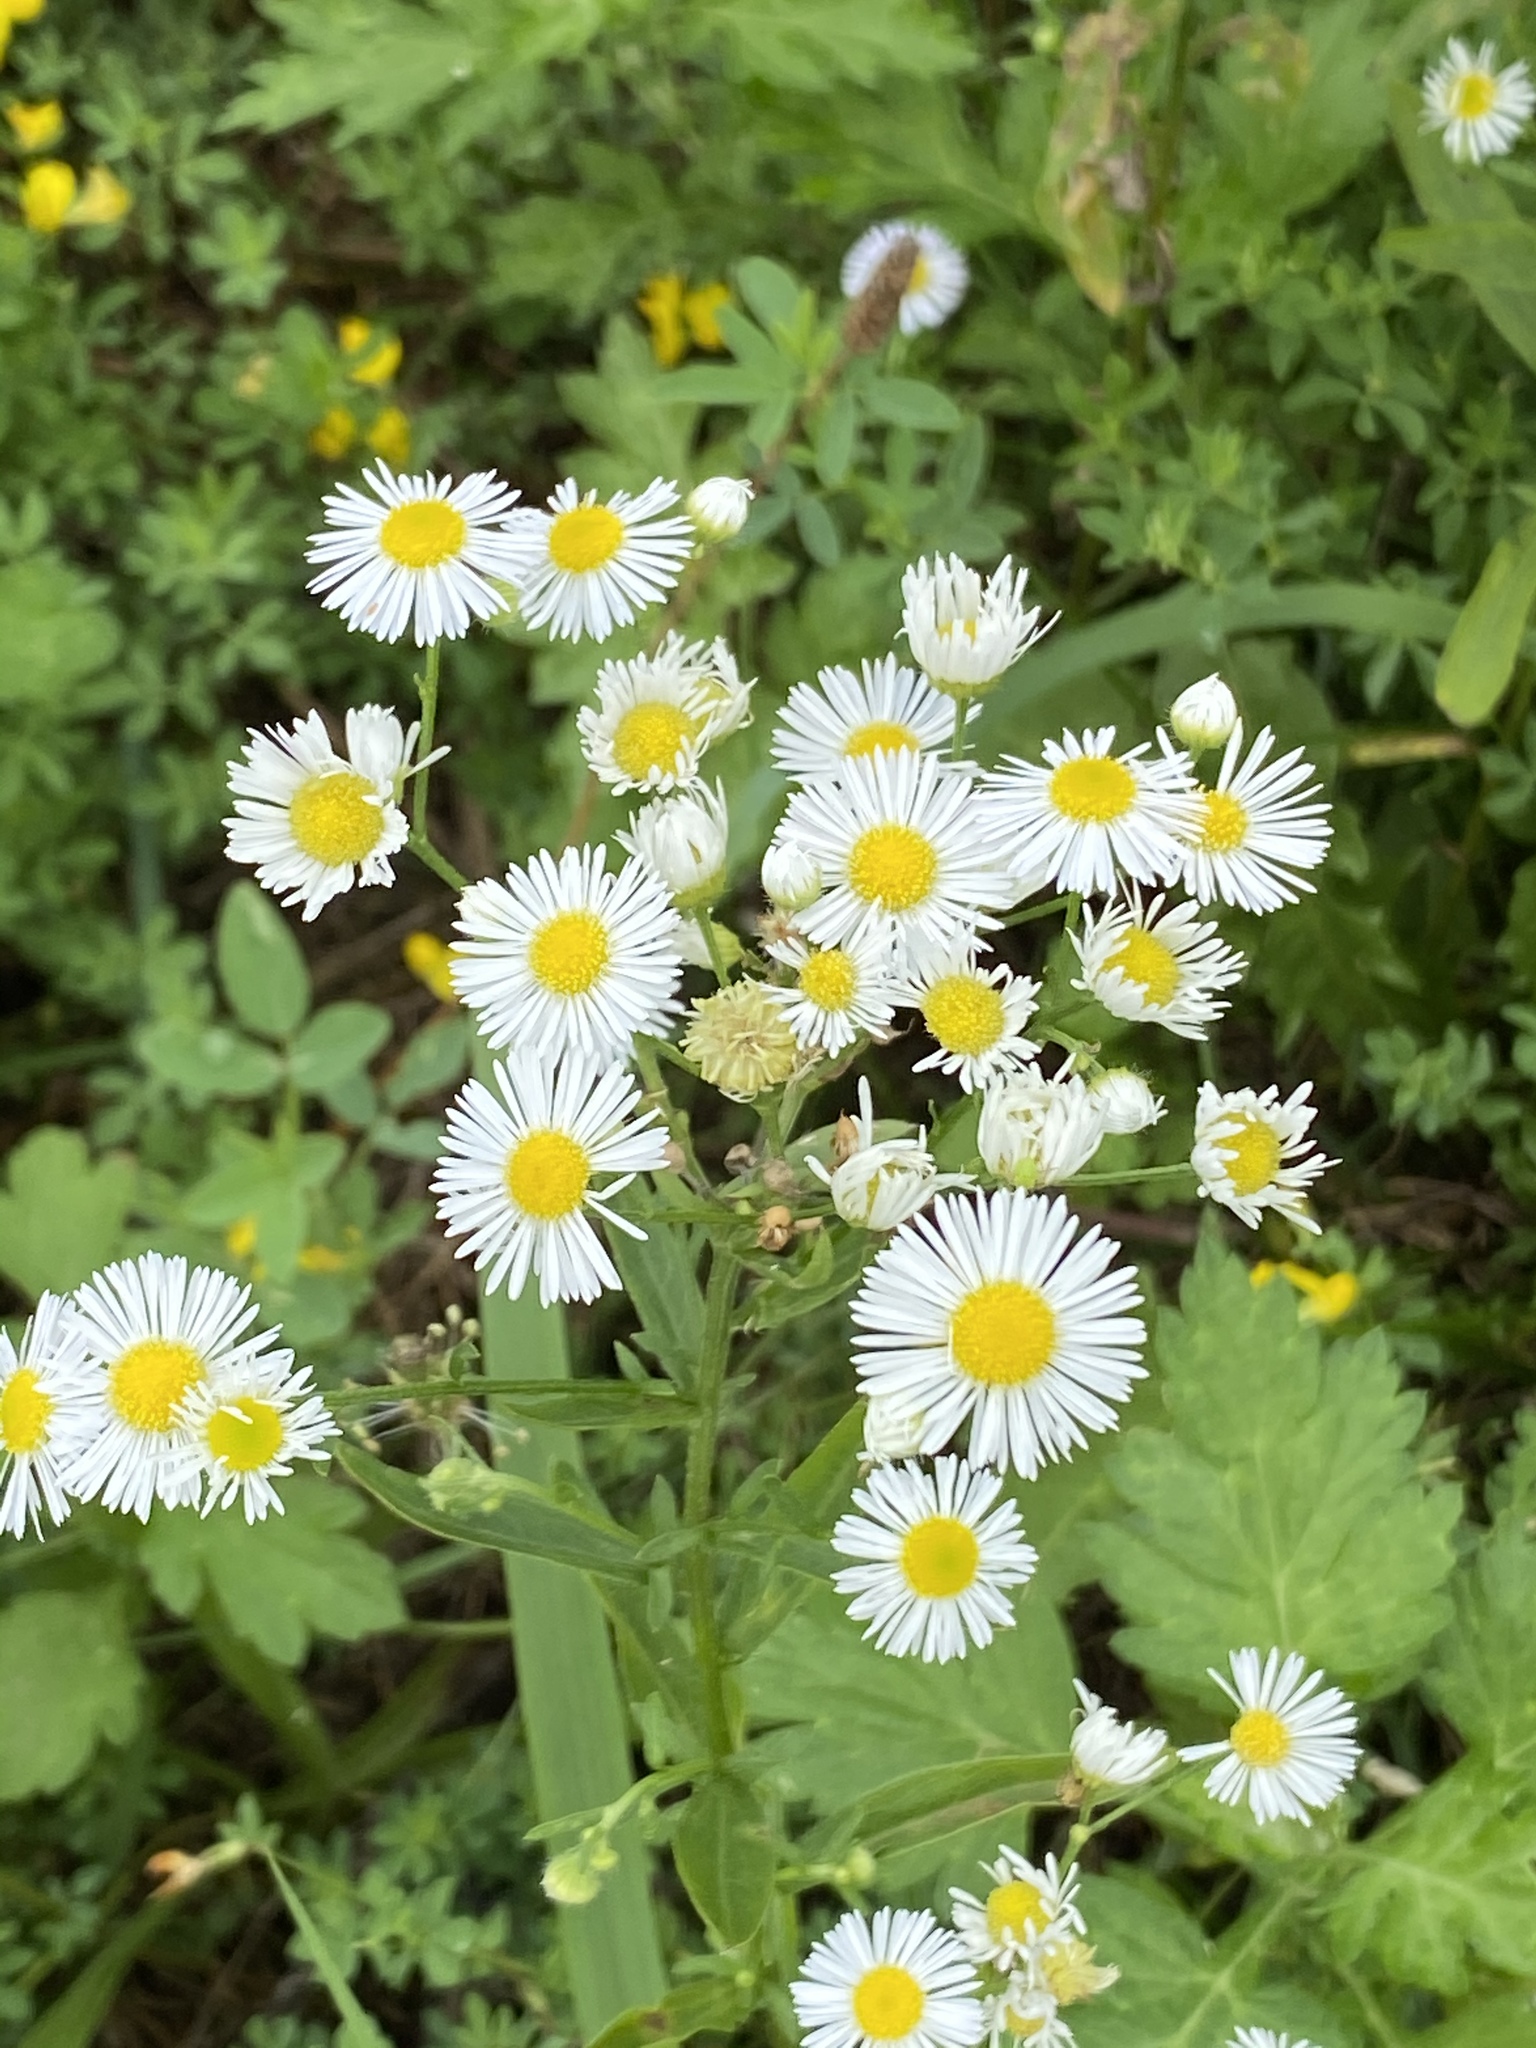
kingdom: Plantae
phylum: Tracheophyta
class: Magnoliopsida
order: Asterales
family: Asteraceae
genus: Erigeron
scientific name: Erigeron strigosus
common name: Common eastern fleabane
